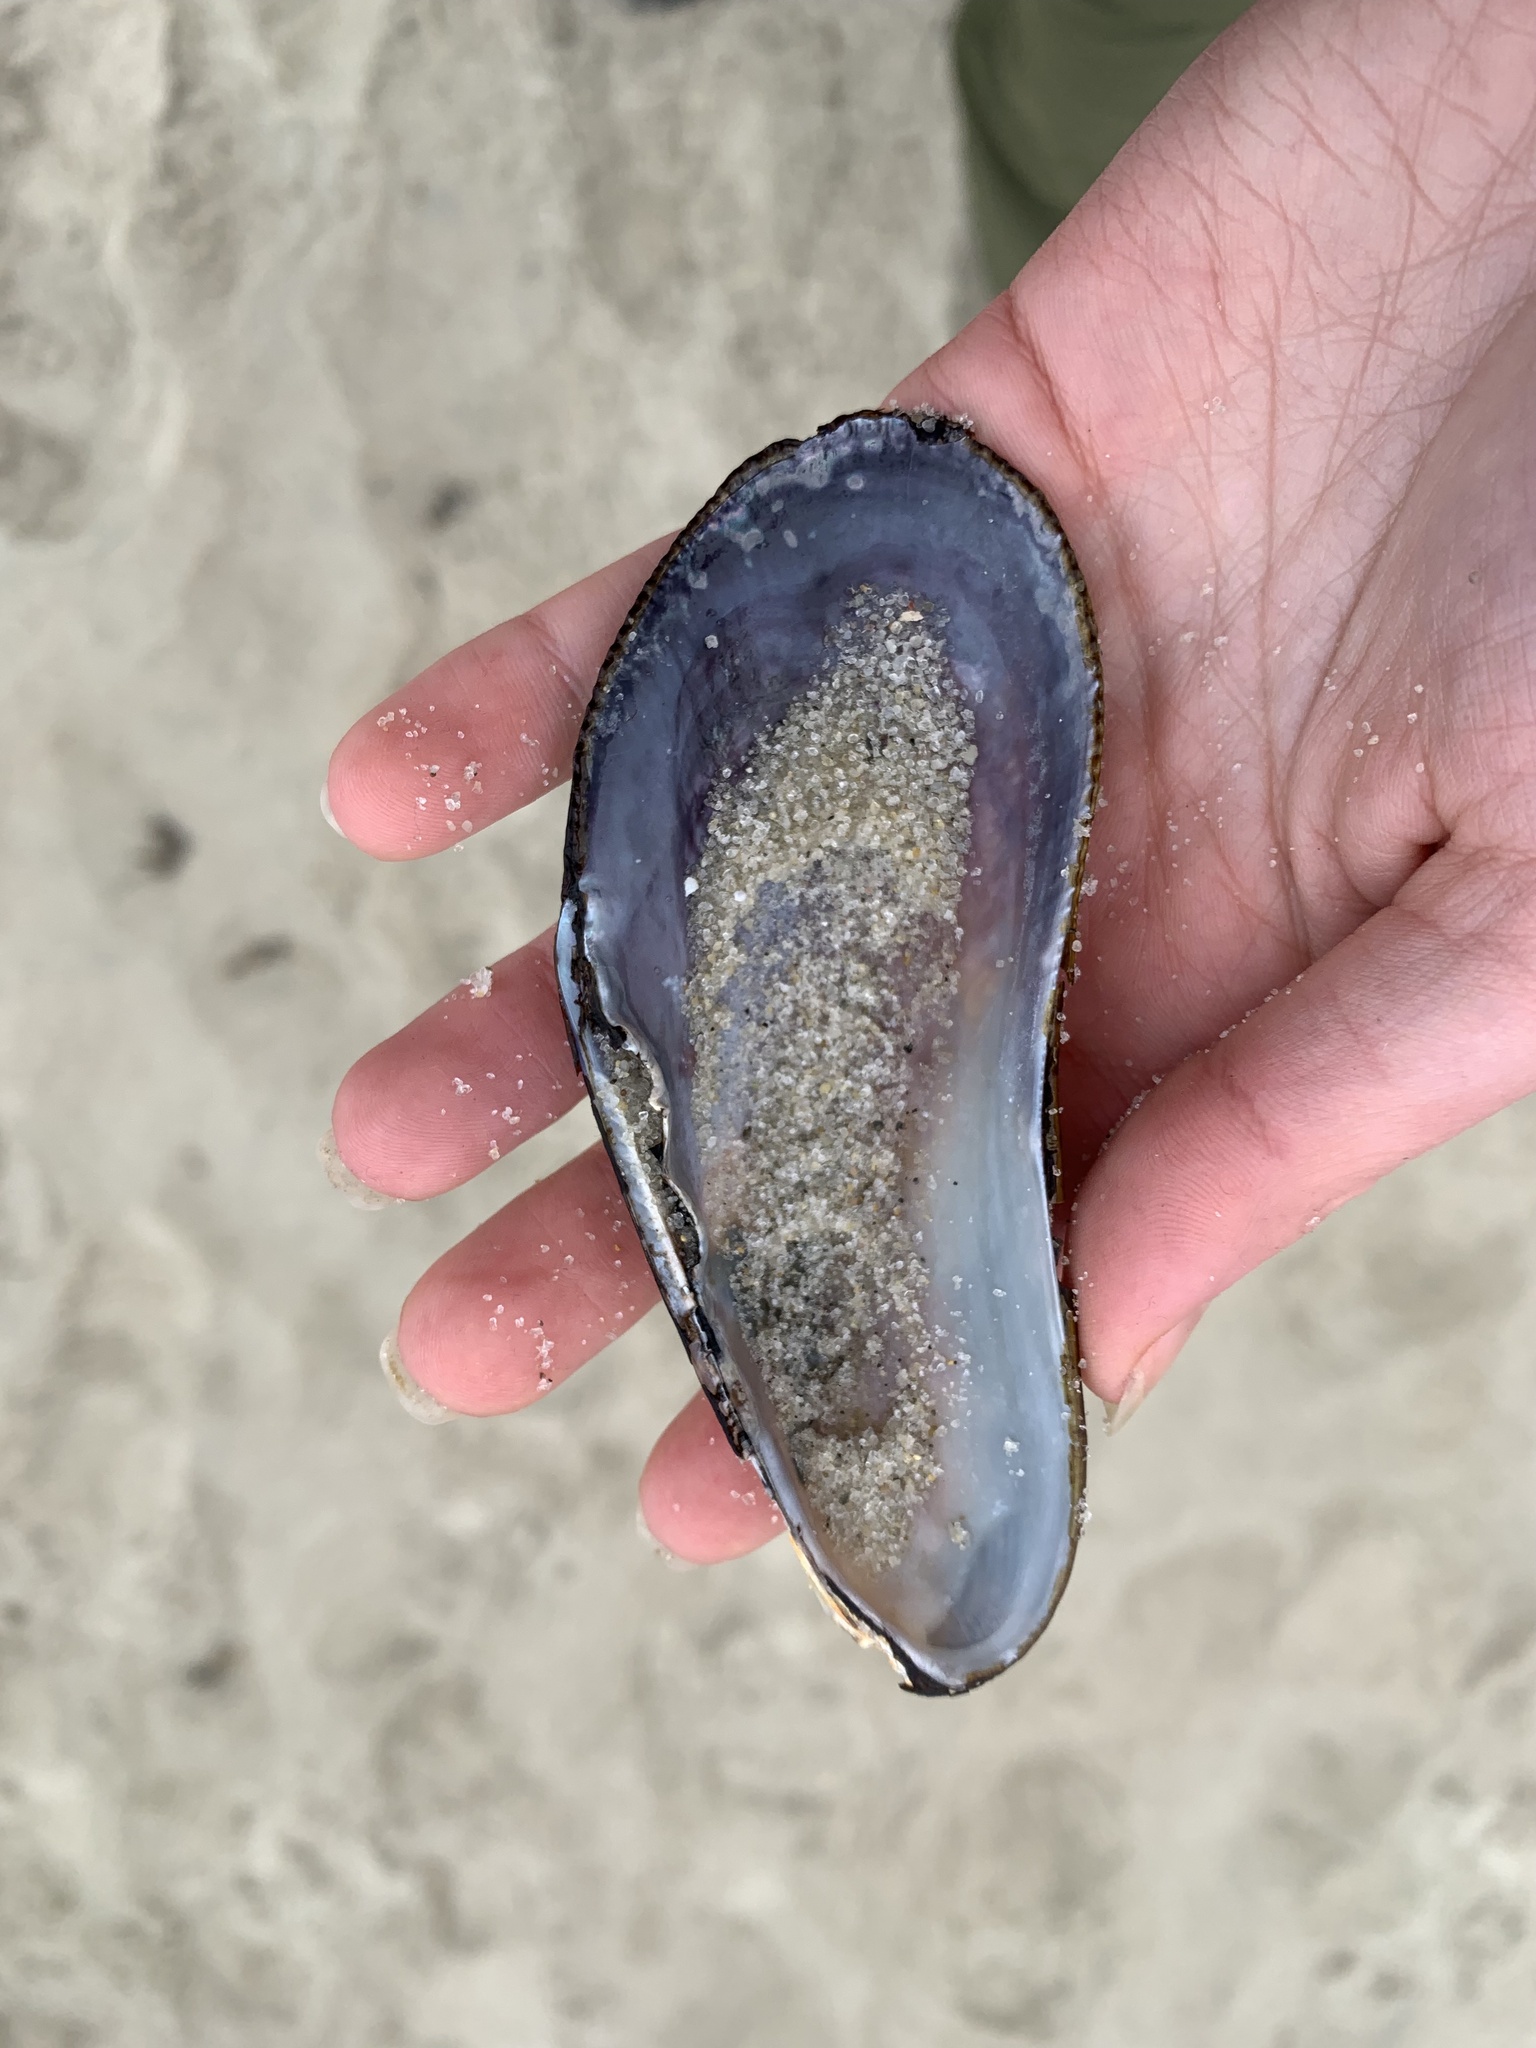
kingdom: Animalia
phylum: Mollusca
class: Bivalvia
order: Mytilida
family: Mytilidae
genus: Geukensia
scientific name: Geukensia demissa
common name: Ribbed mussel
